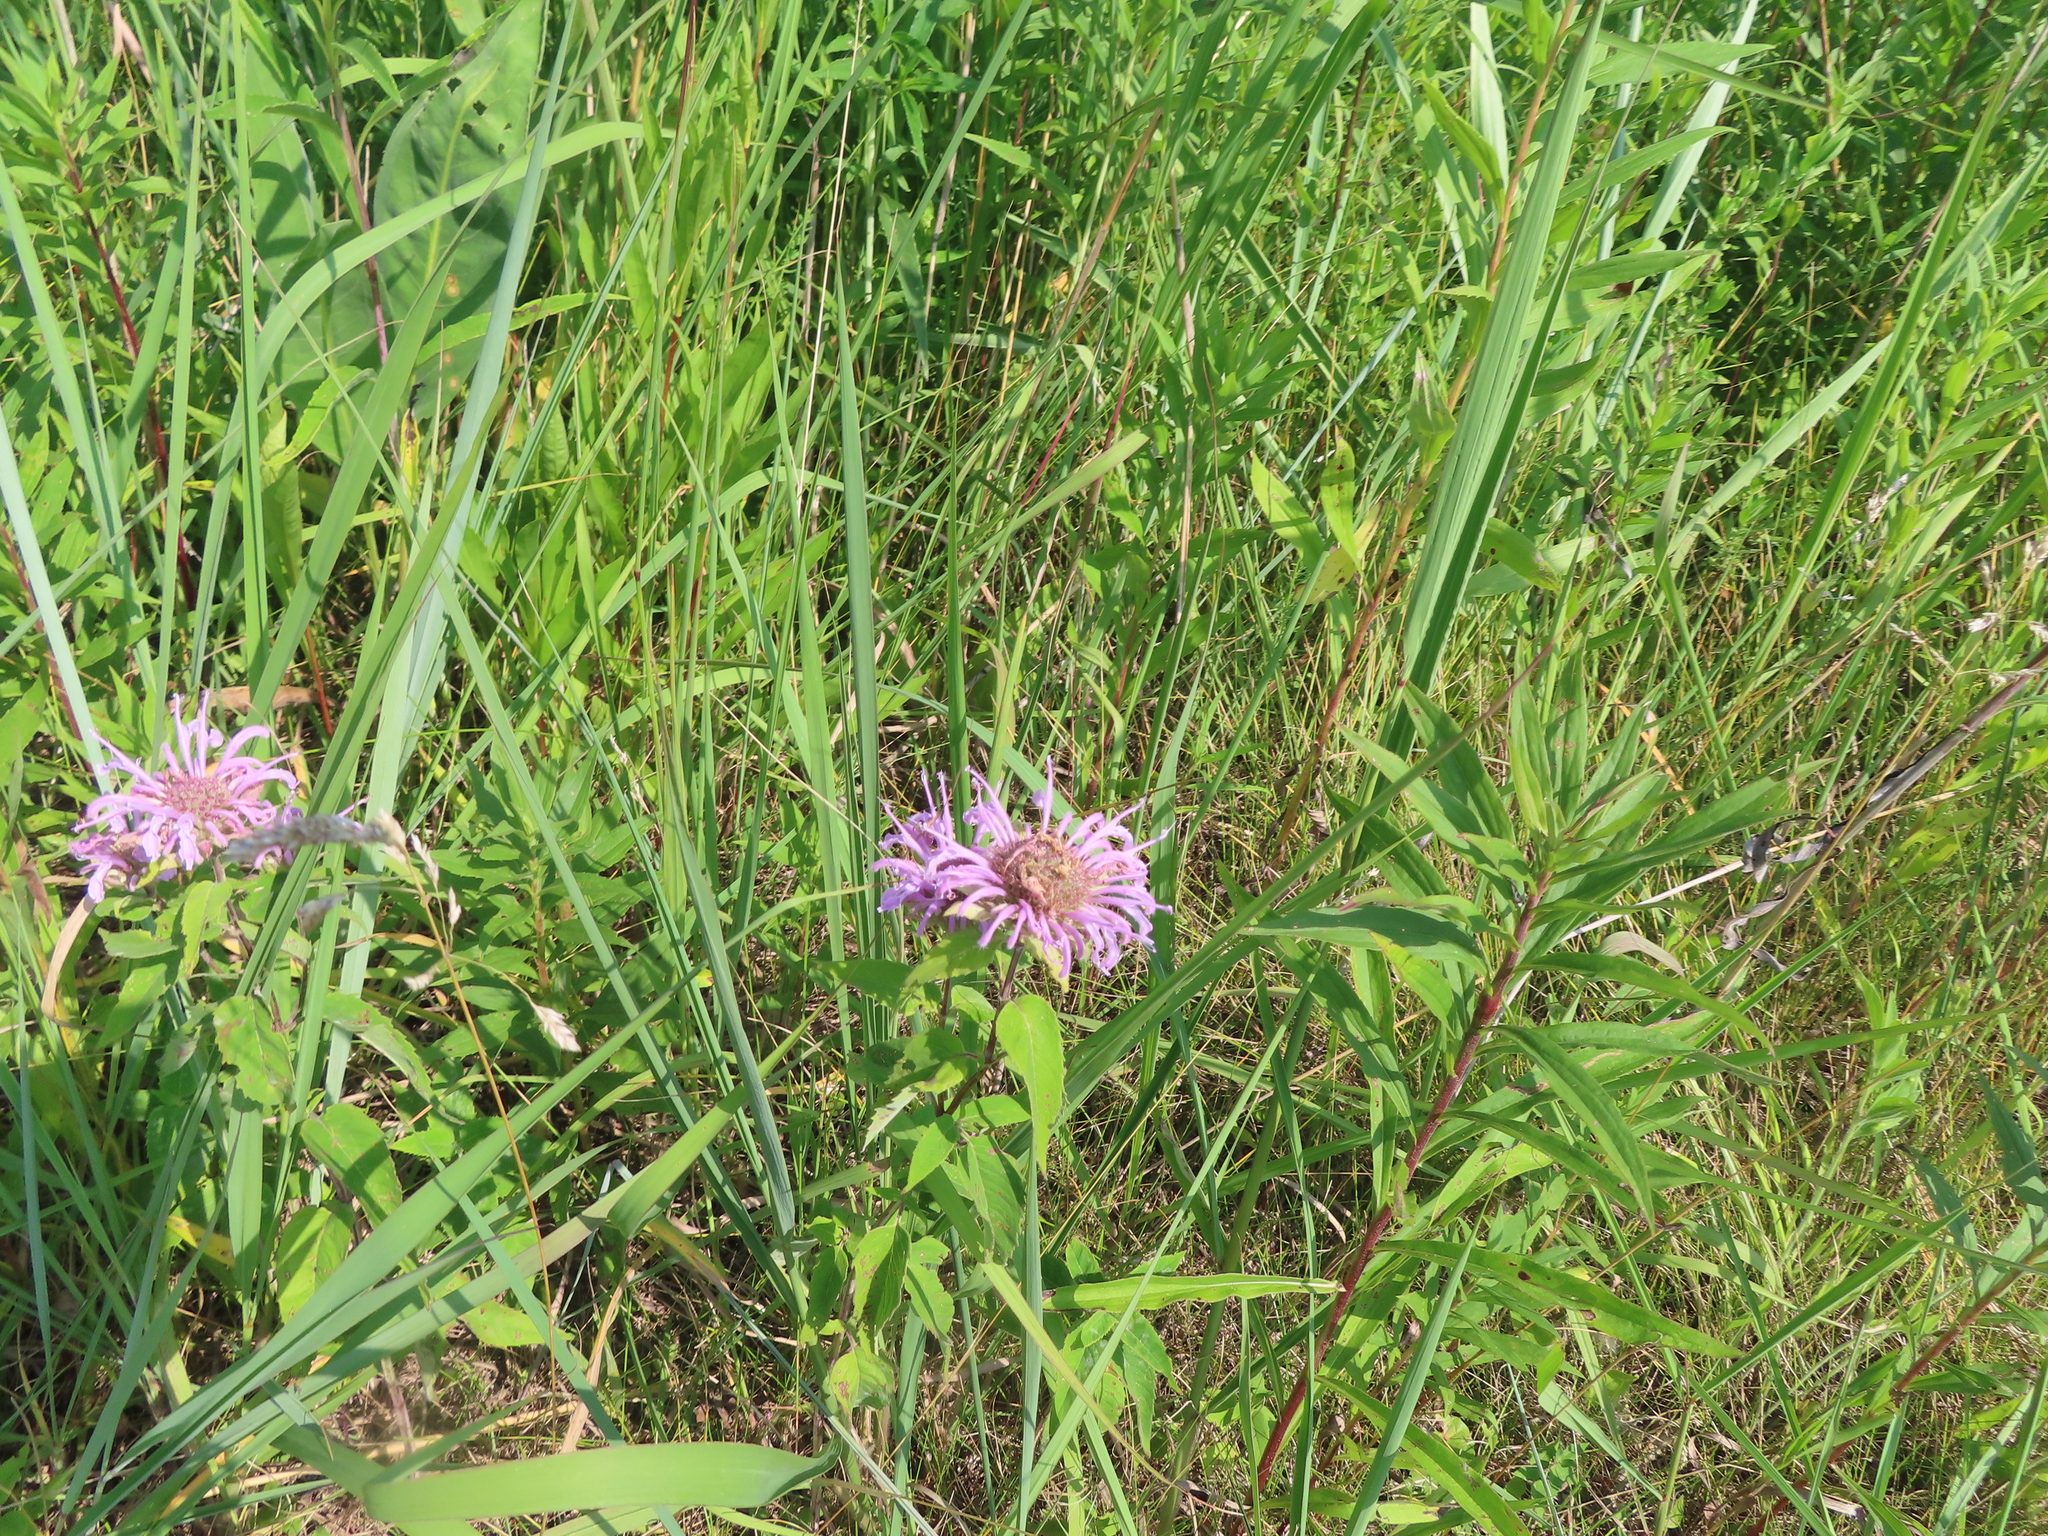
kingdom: Plantae
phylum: Tracheophyta
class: Magnoliopsida
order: Lamiales
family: Lamiaceae
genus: Monarda
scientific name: Monarda fistulosa
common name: Purple beebalm
